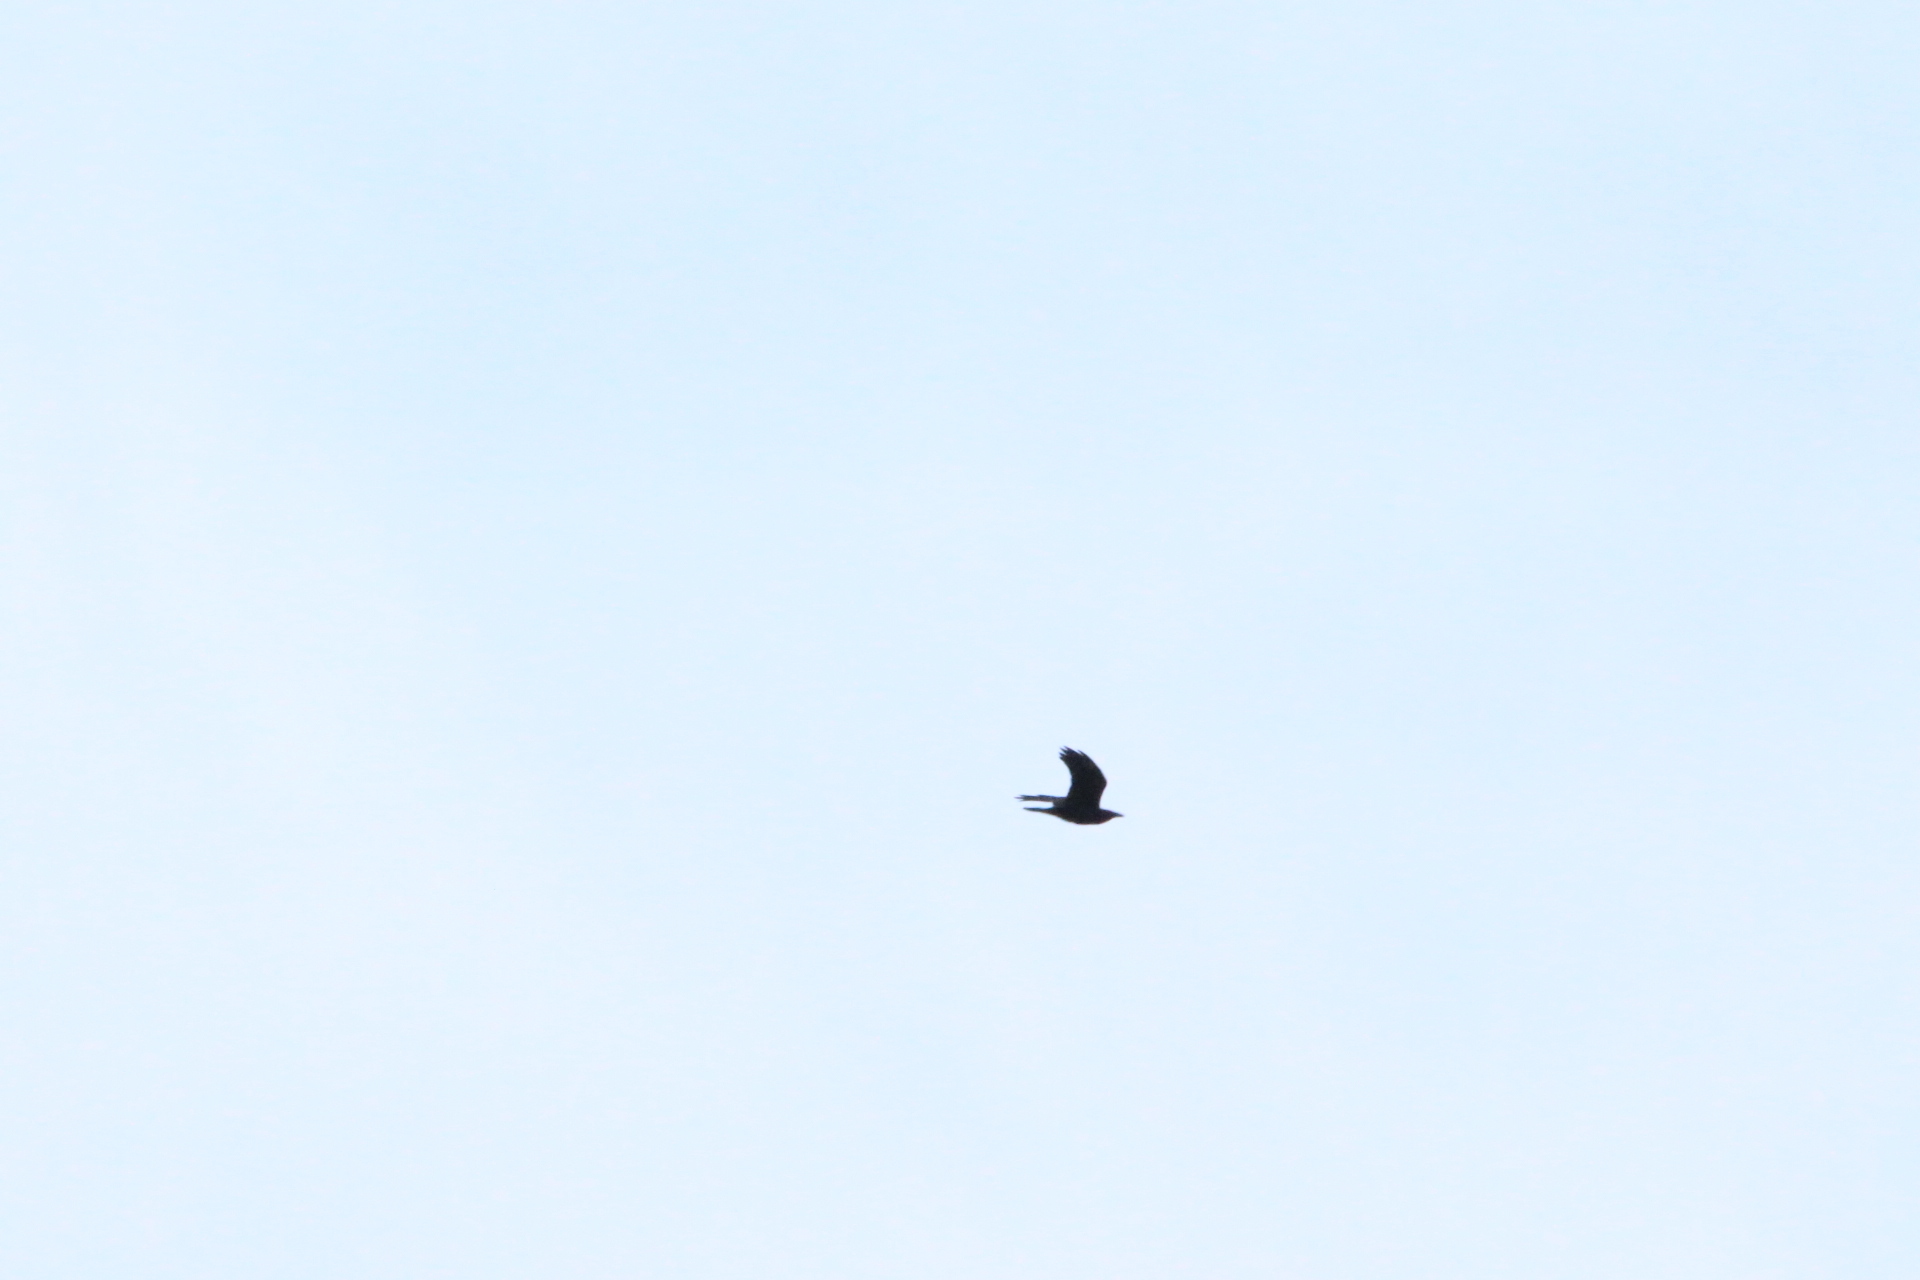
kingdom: Animalia
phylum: Chordata
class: Aves
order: Passeriformes
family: Corvidae
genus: Corvus
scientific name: Corvus corax
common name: Common raven
